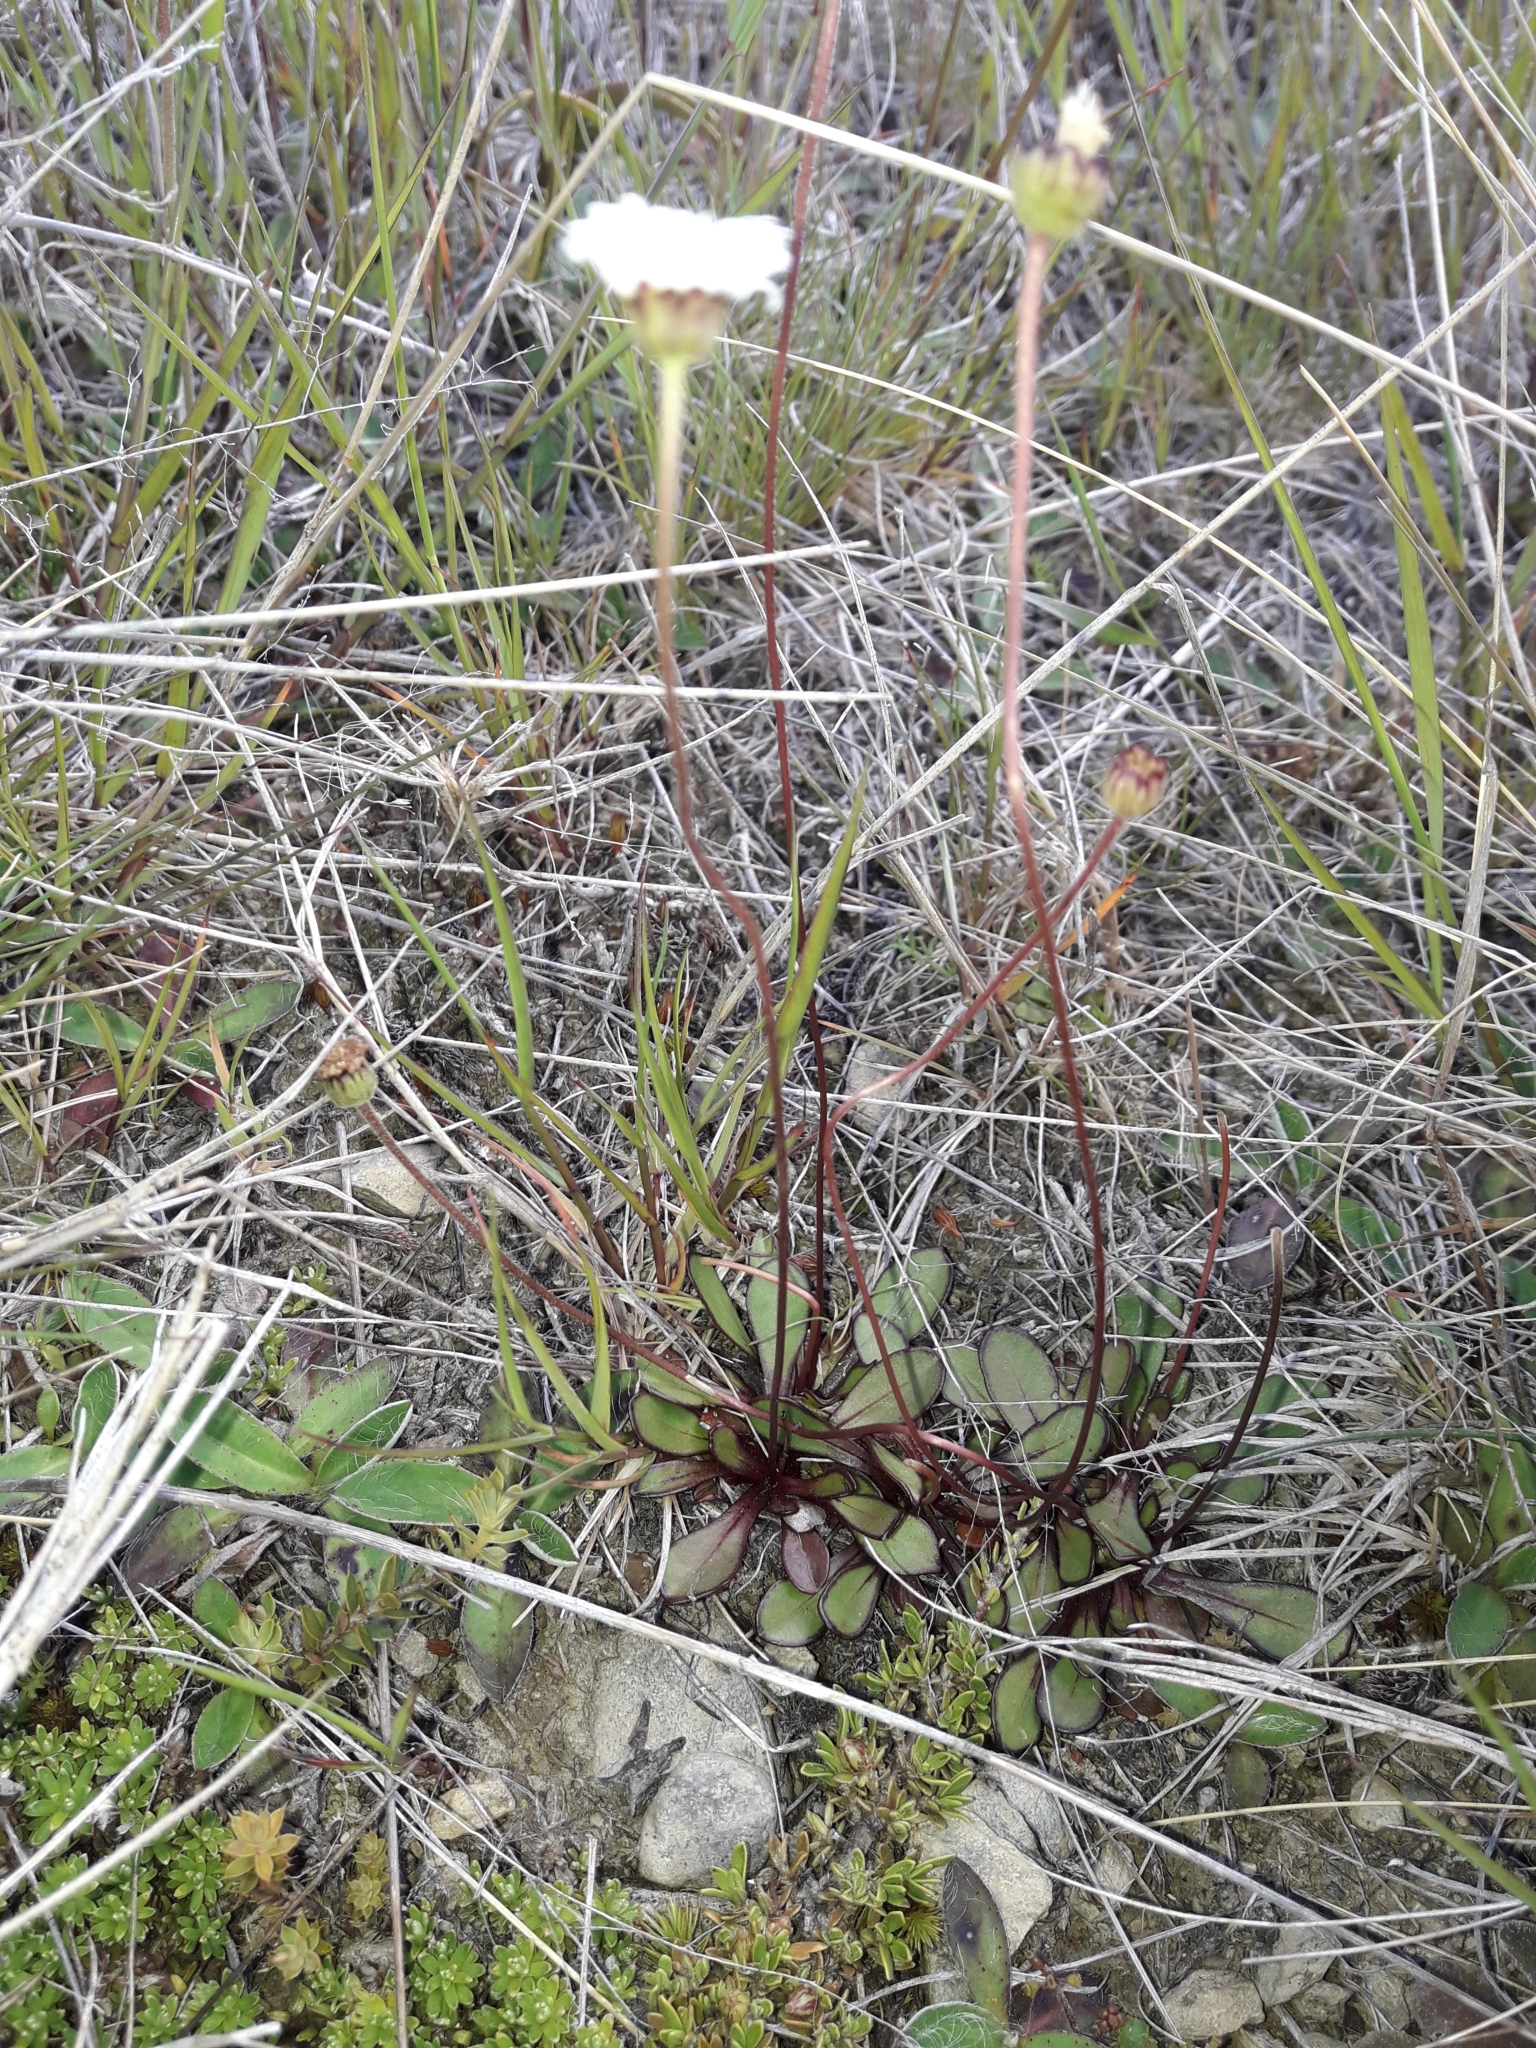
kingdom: Plantae
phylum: Tracheophyta
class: Magnoliopsida
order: Asterales
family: Asteraceae
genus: Brachyscome
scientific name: Brachyscome longiscapa
